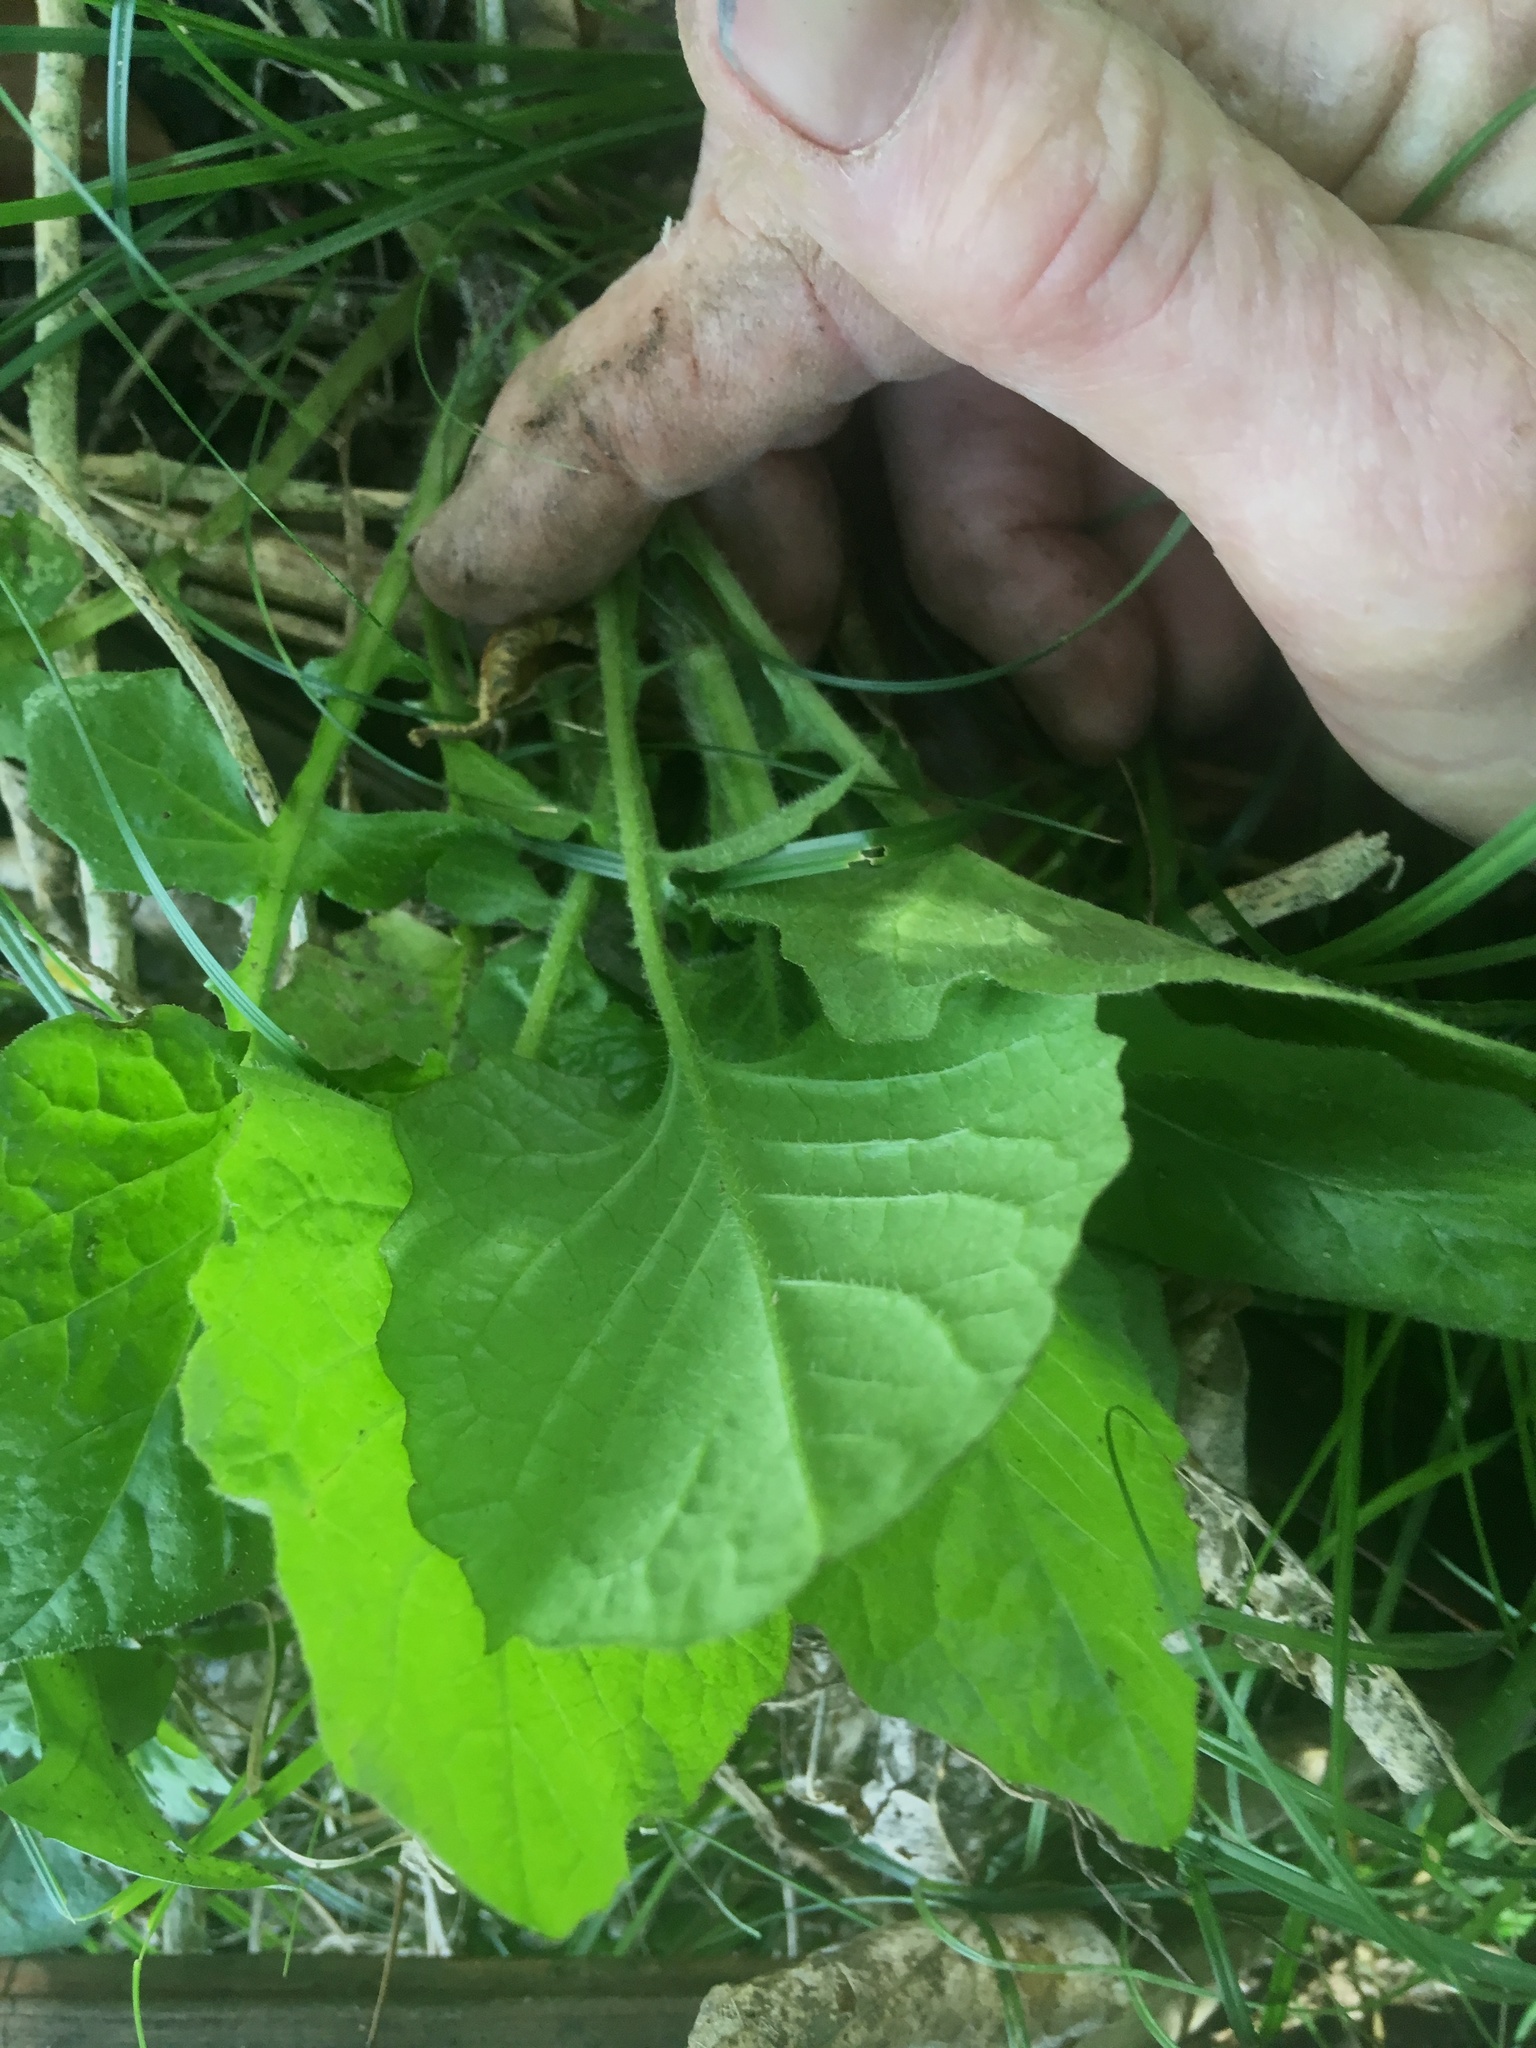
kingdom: Plantae
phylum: Tracheophyta
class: Magnoliopsida
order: Asterales
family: Asteraceae
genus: Lapsana
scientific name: Lapsana communis
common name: Nipplewort
